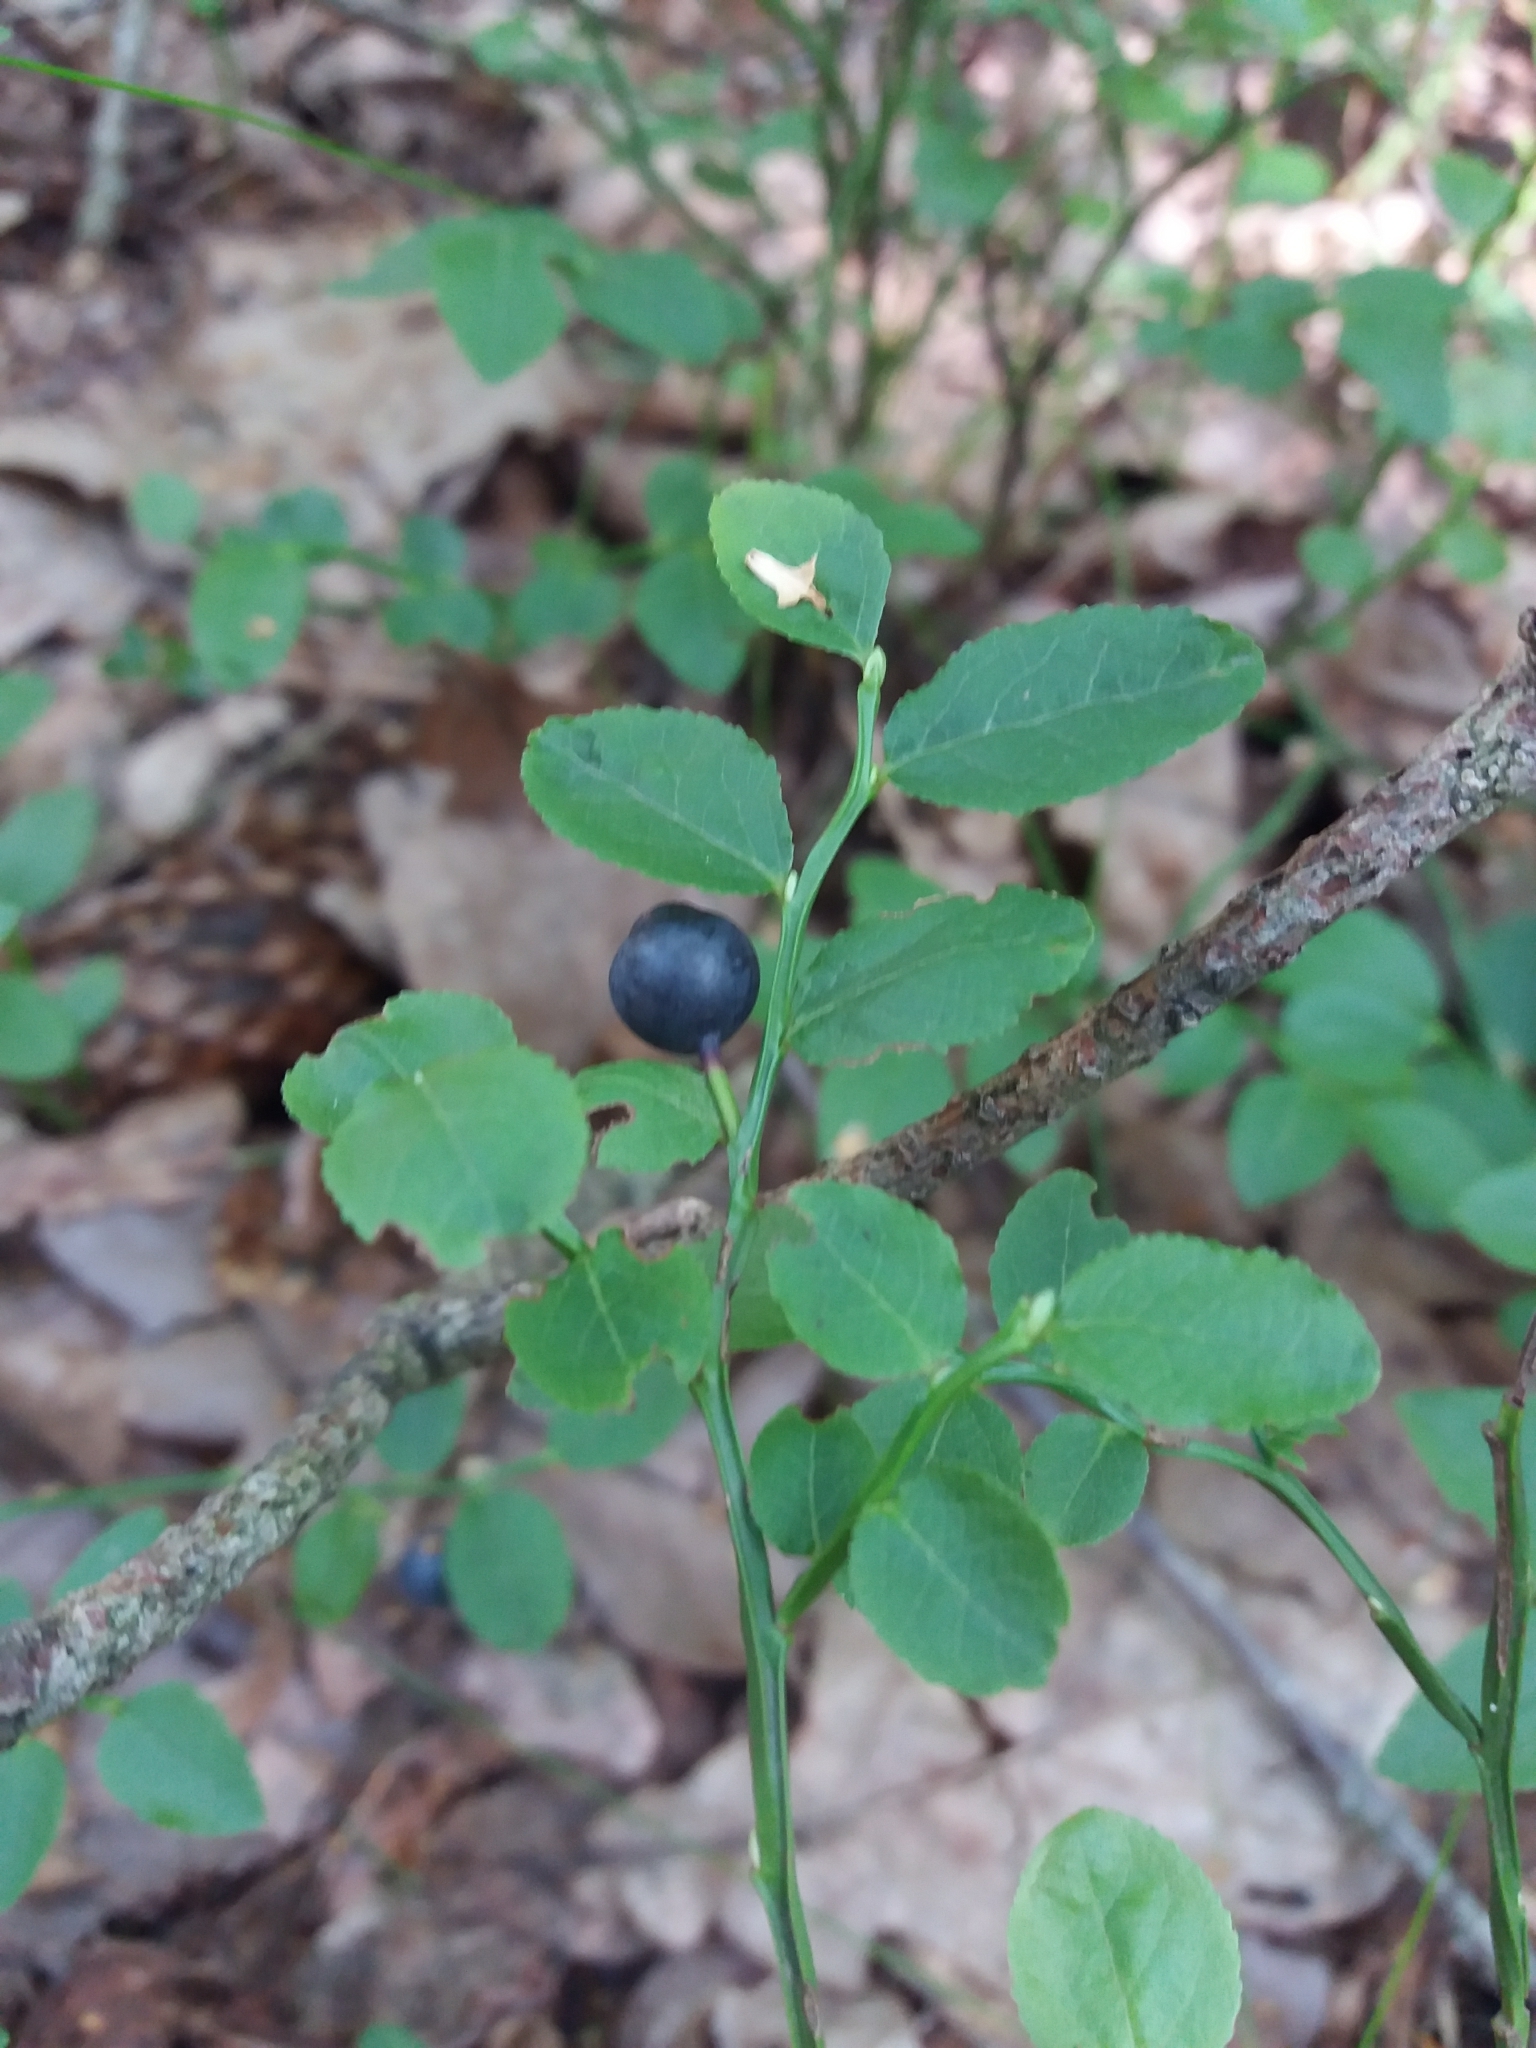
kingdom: Plantae
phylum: Tracheophyta
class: Magnoliopsida
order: Ericales
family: Ericaceae
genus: Vaccinium
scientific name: Vaccinium myrtillus
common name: Bilberry
